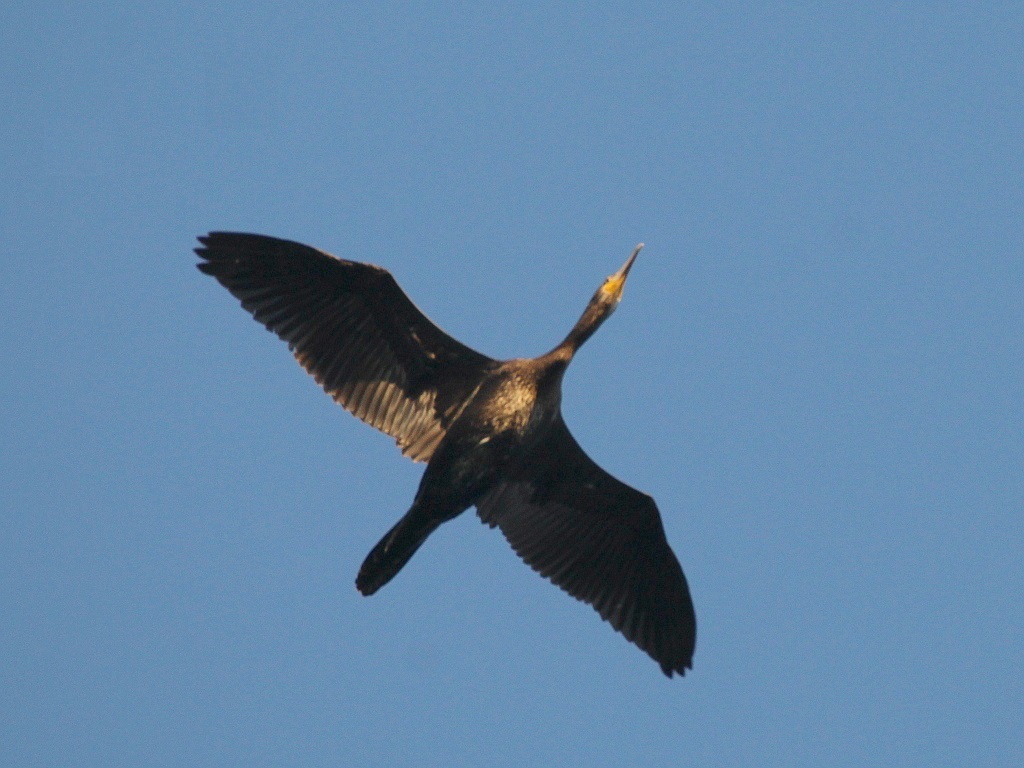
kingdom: Animalia
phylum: Chordata
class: Aves
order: Suliformes
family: Phalacrocoracidae
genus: Phalacrocorax
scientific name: Phalacrocorax carbo
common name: Great cormorant
